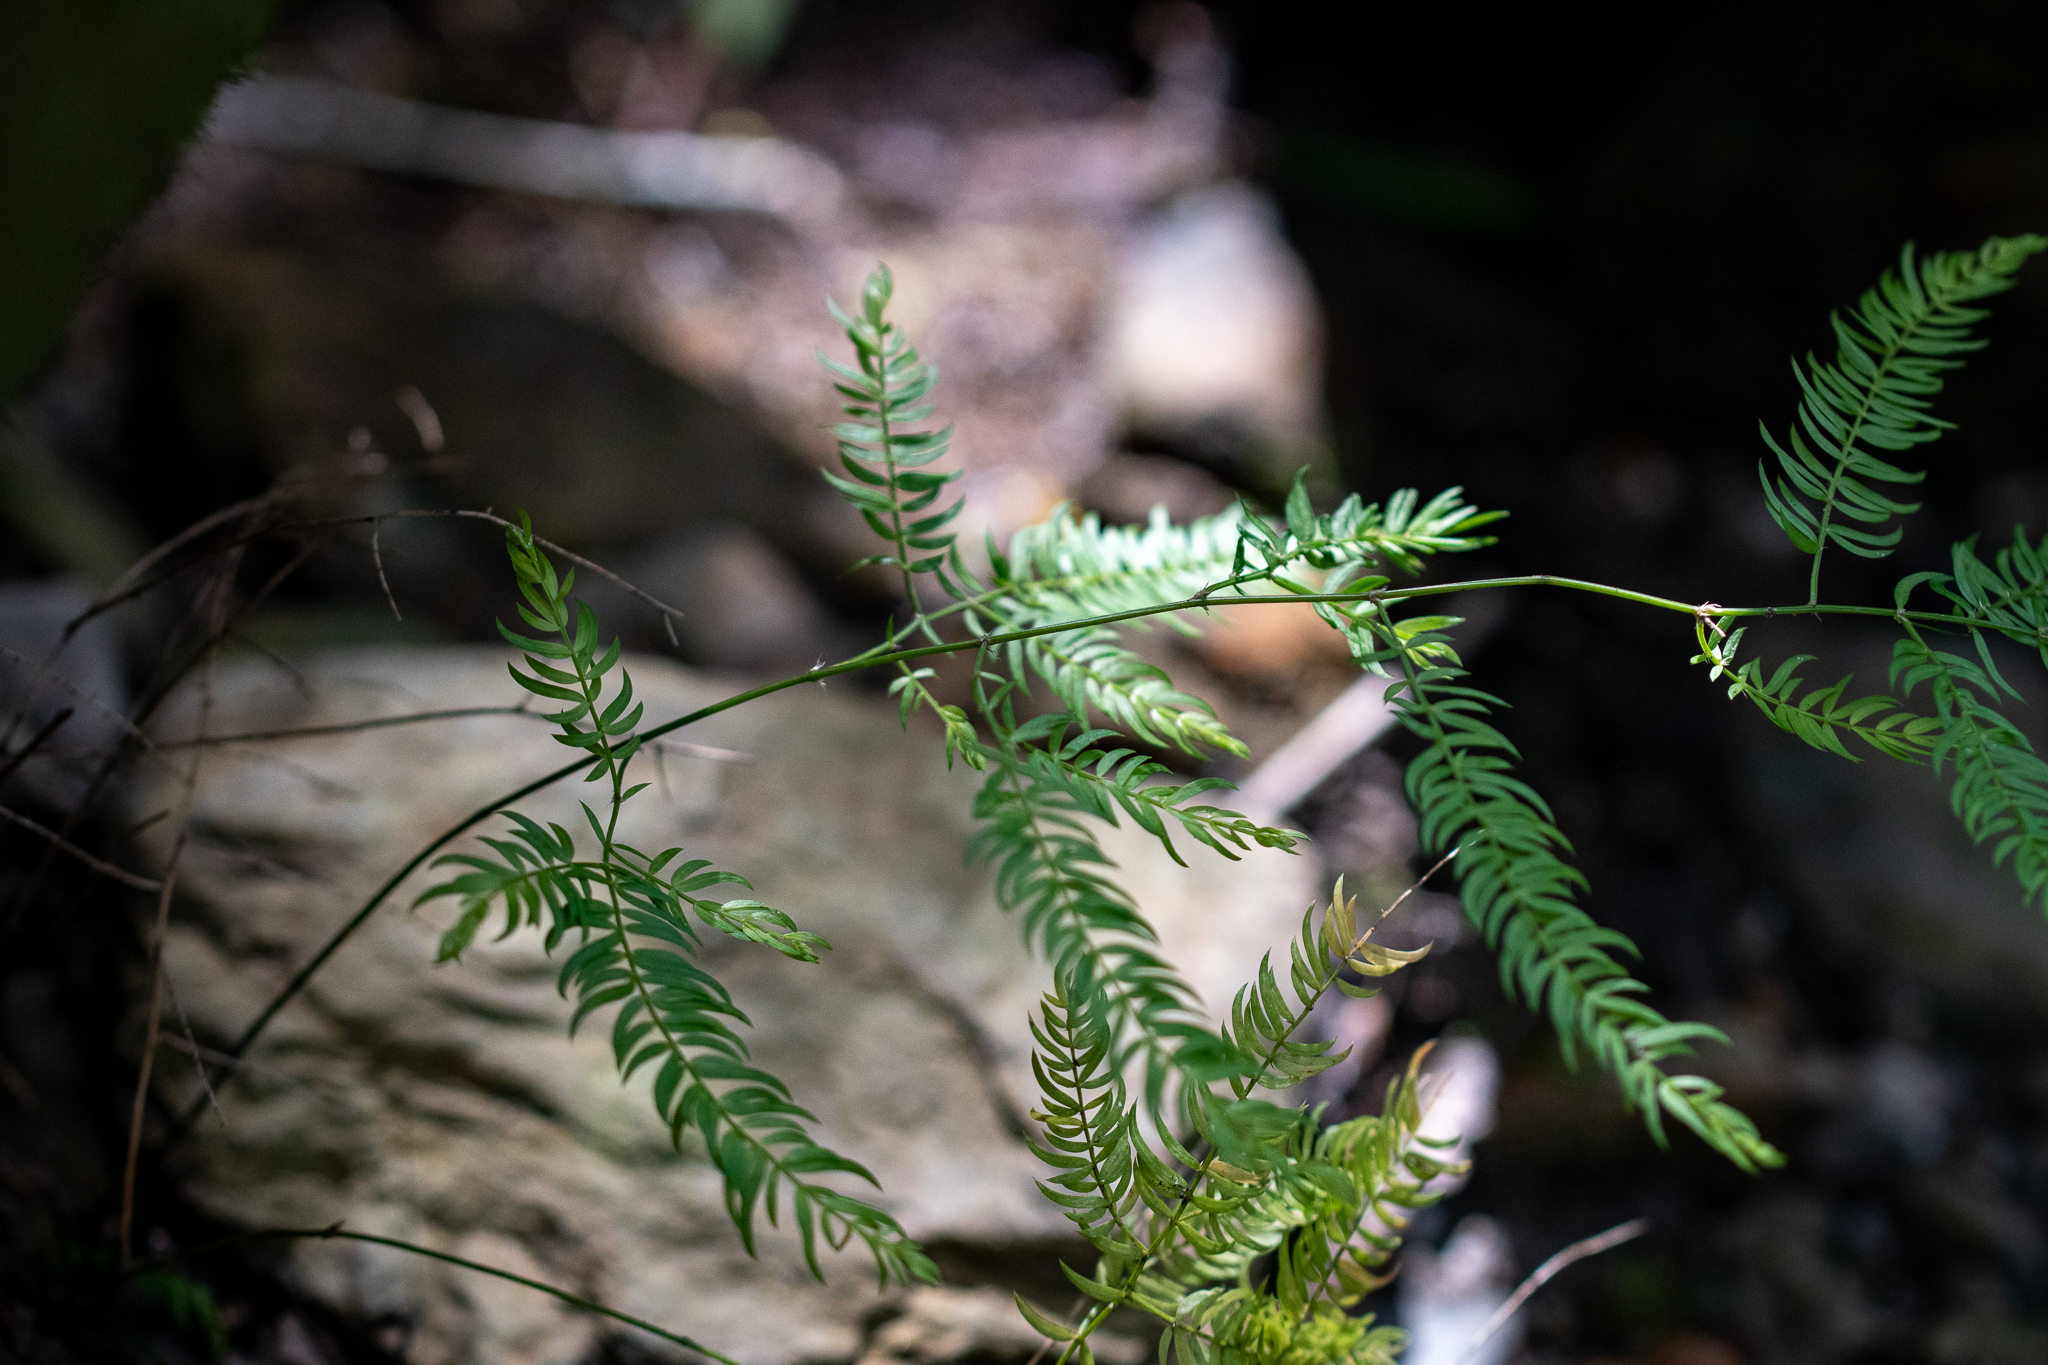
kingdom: Plantae
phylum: Tracheophyta
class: Liliopsida
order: Asparagales
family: Asparagaceae
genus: Asparagus
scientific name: Asparagus scandens
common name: Asparagus-fern
